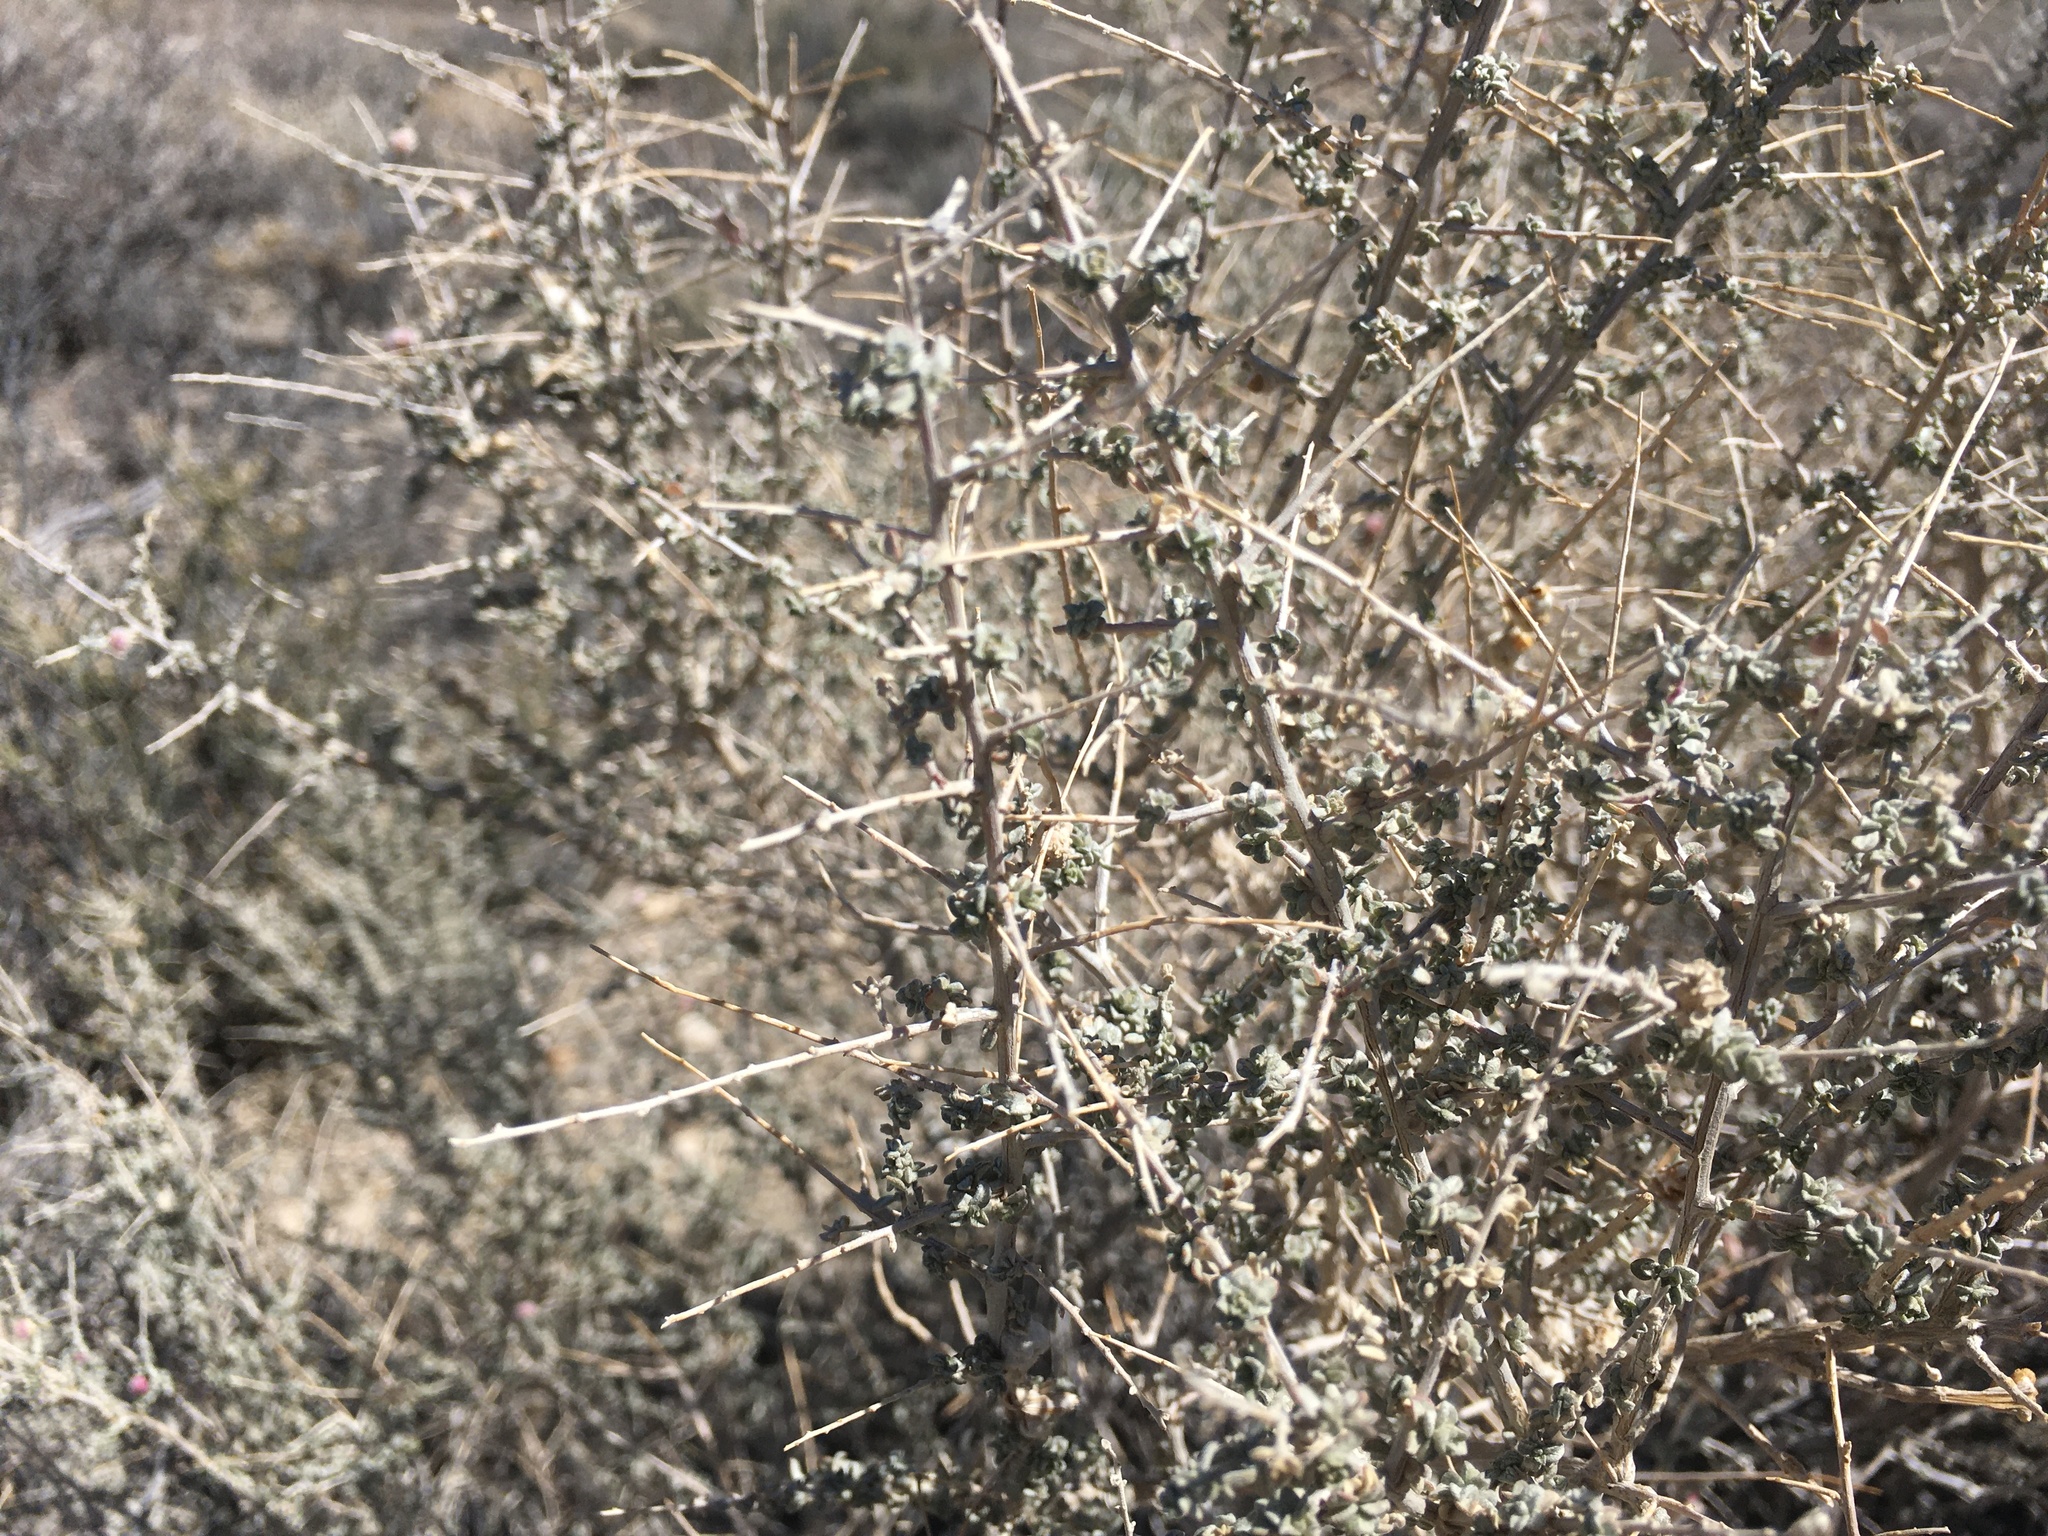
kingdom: Plantae
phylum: Tracheophyta
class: Magnoliopsida
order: Caryophyllales
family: Amaranthaceae
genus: Atriplex
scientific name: Atriplex polycarpa
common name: Desert saltbush
